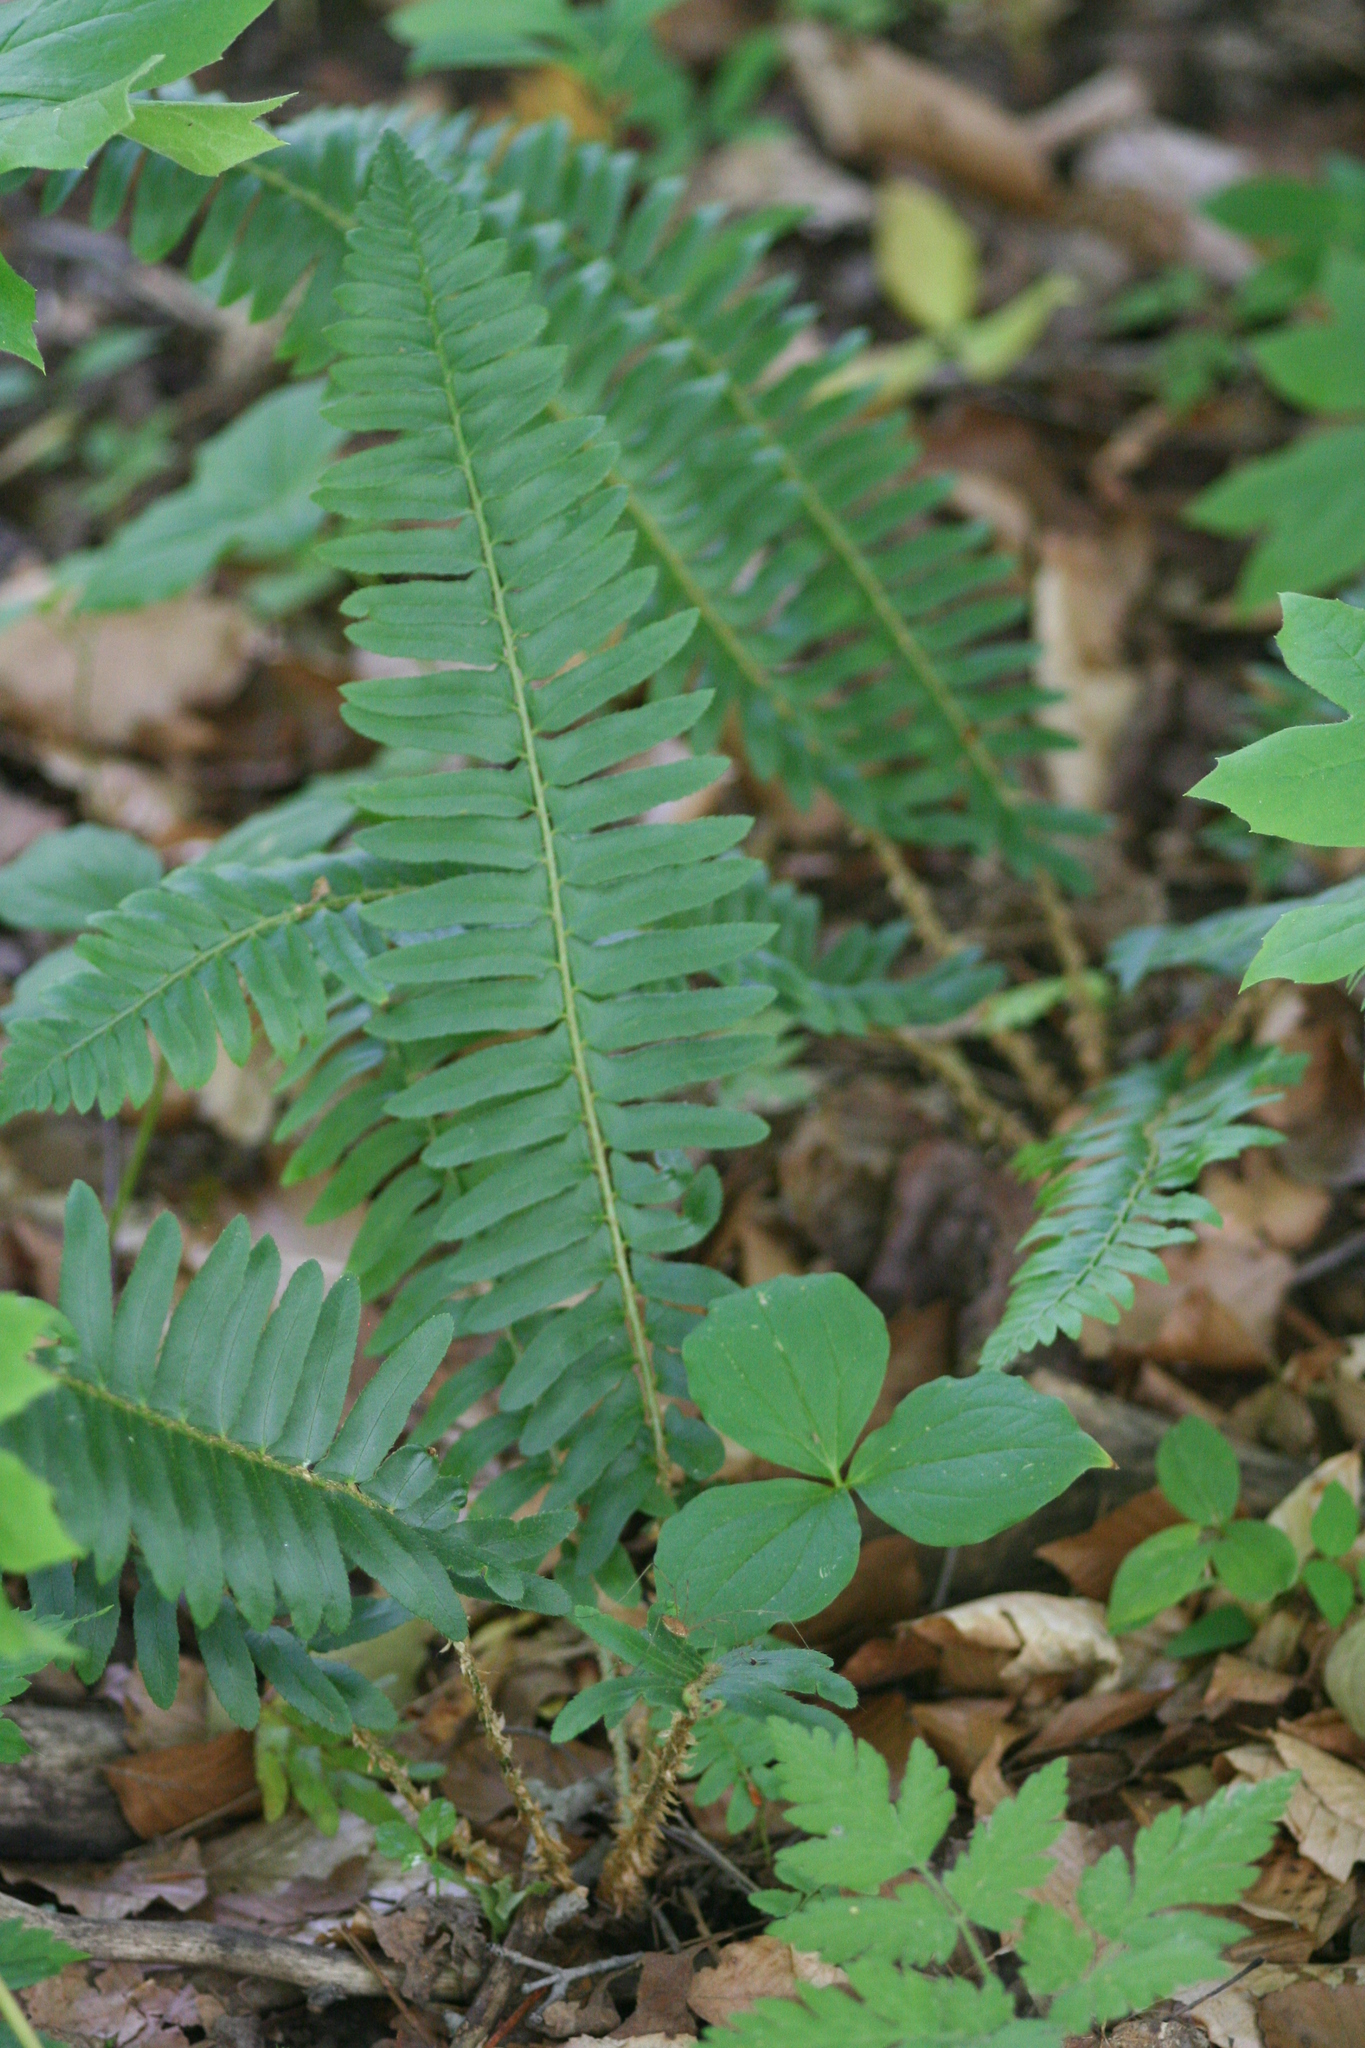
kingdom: Plantae
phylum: Tracheophyta
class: Polypodiopsida
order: Polypodiales
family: Dryopteridaceae
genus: Polystichum
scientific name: Polystichum acrostichoides
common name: Christmas fern
